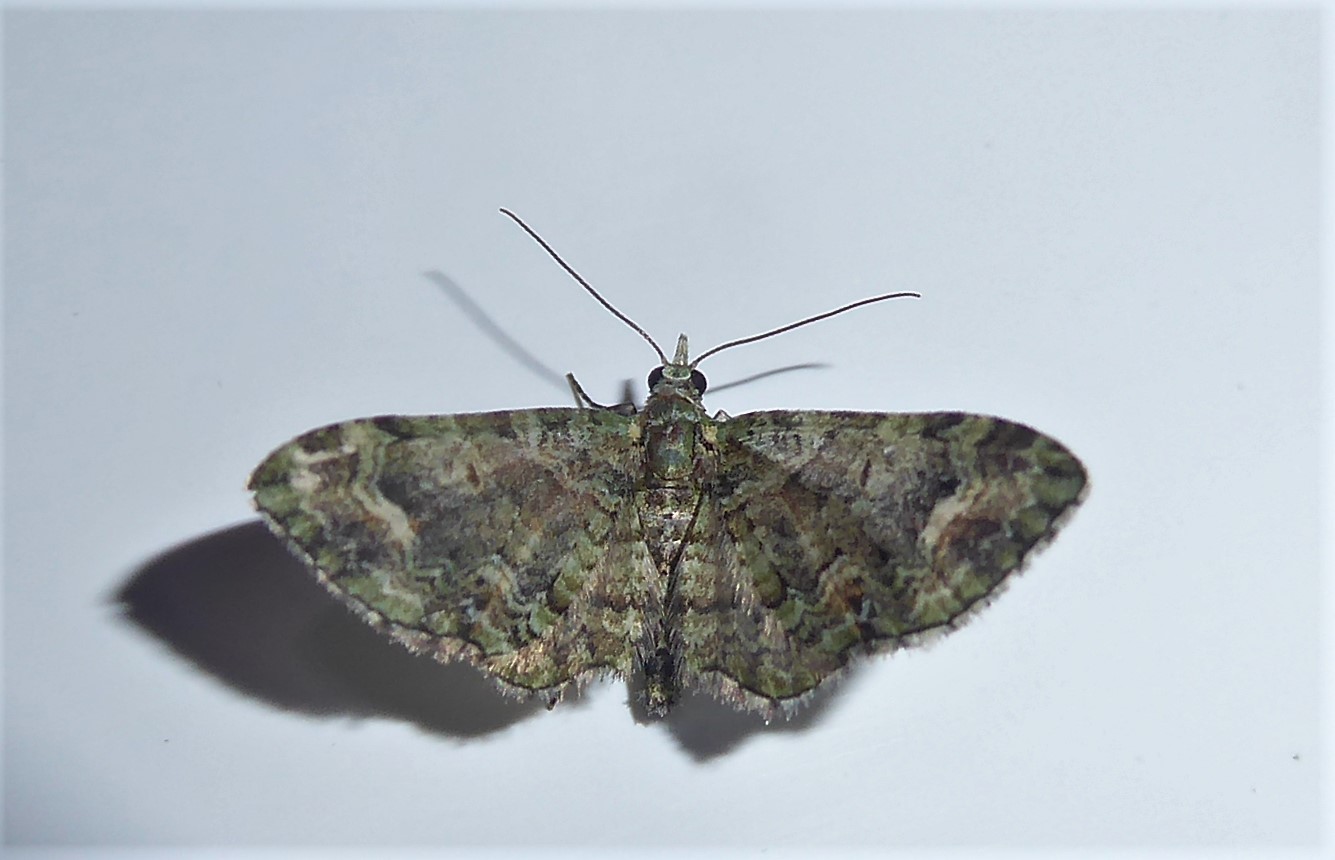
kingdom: Animalia
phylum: Arthropoda
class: Insecta
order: Lepidoptera
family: Geometridae
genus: Idaea
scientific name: Idaea mutanda
